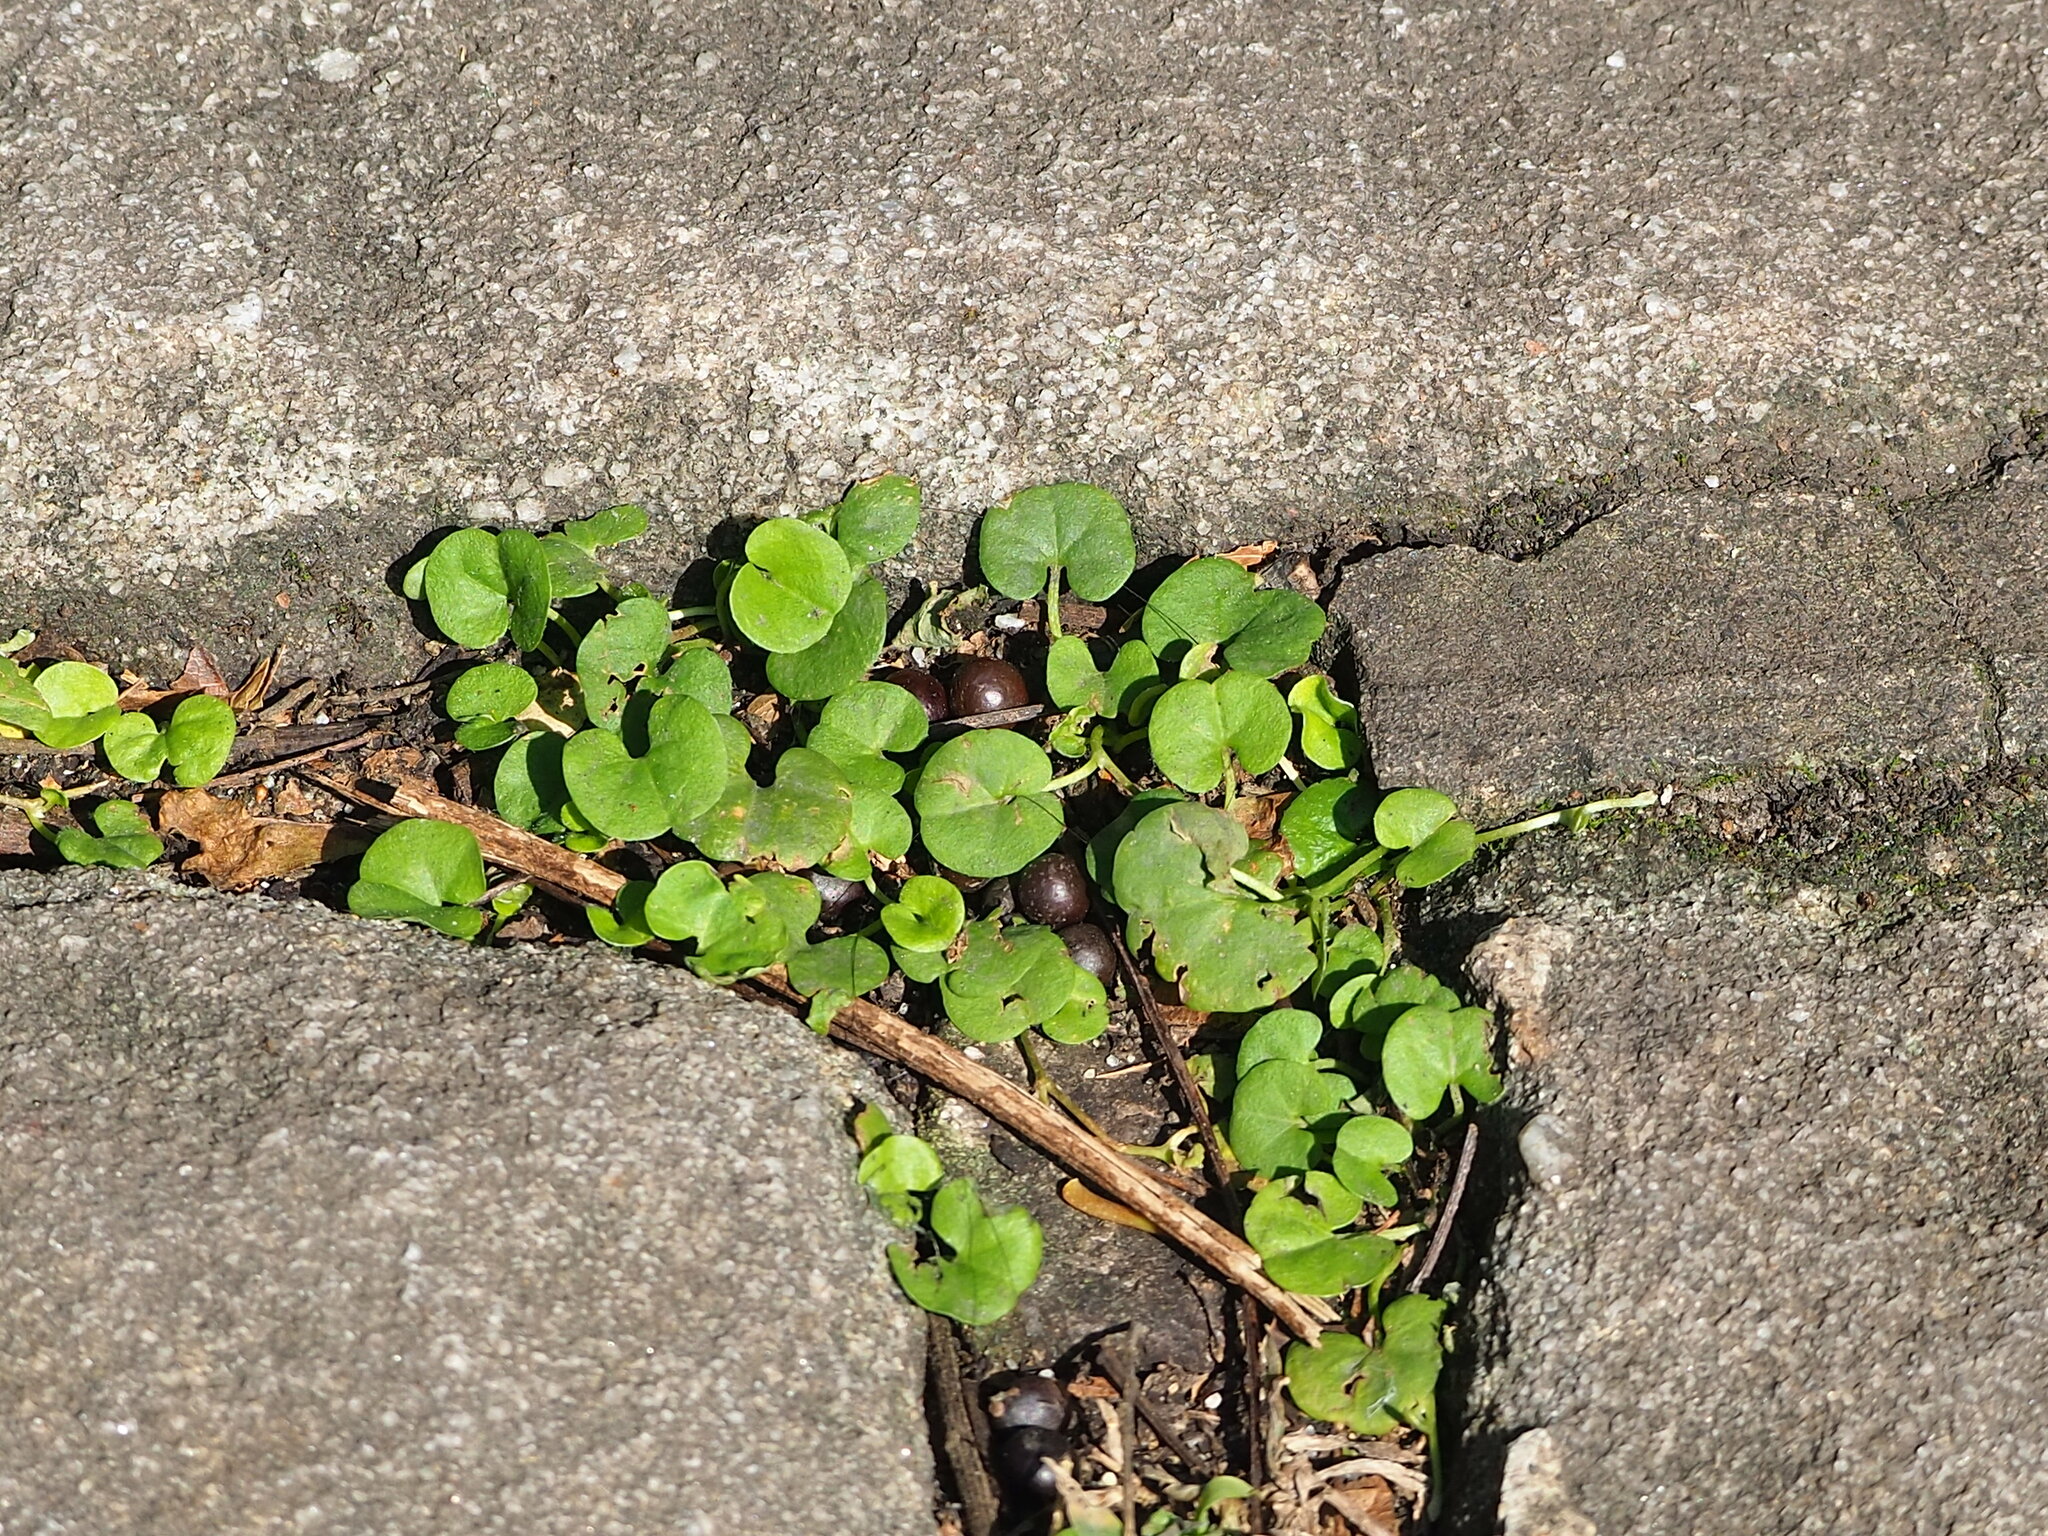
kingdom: Plantae
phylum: Tracheophyta
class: Magnoliopsida
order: Solanales
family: Convolvulaceae
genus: Dichondra
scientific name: Dichondra micrantha
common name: Kidneyweed
